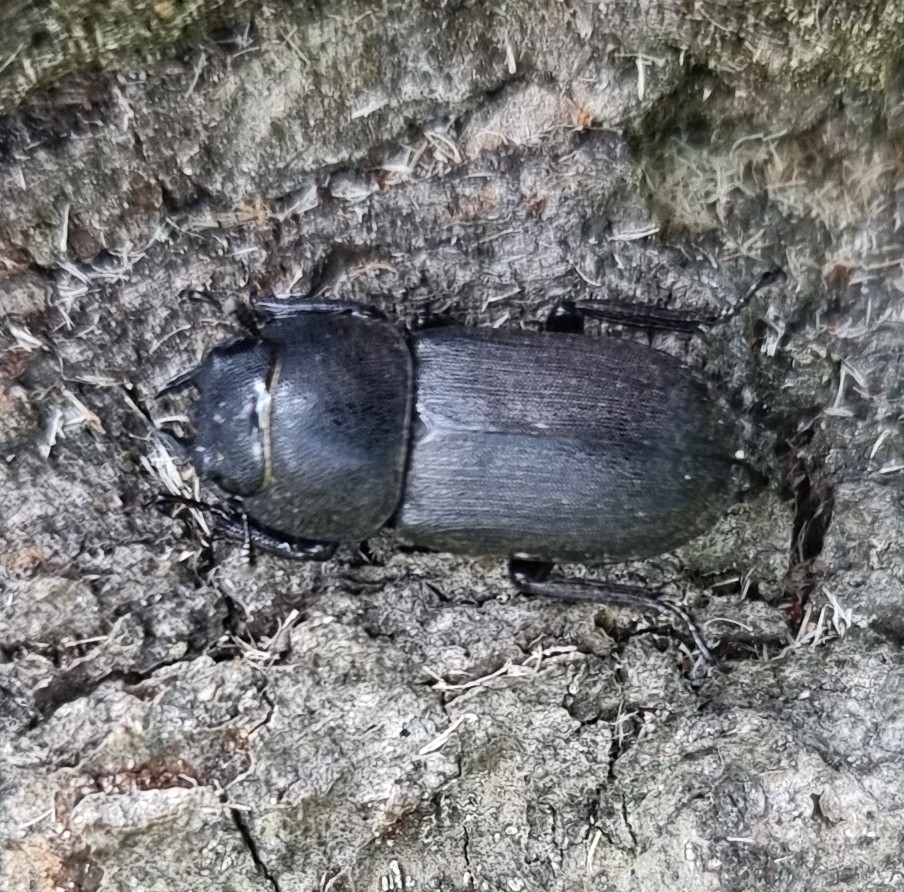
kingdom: Animalia
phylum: Arthropoda
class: Insecta
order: Coleoptera
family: Lucanidae
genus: Dorcus
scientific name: Dorcus parallelipipedus
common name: Lesser stag beetle
